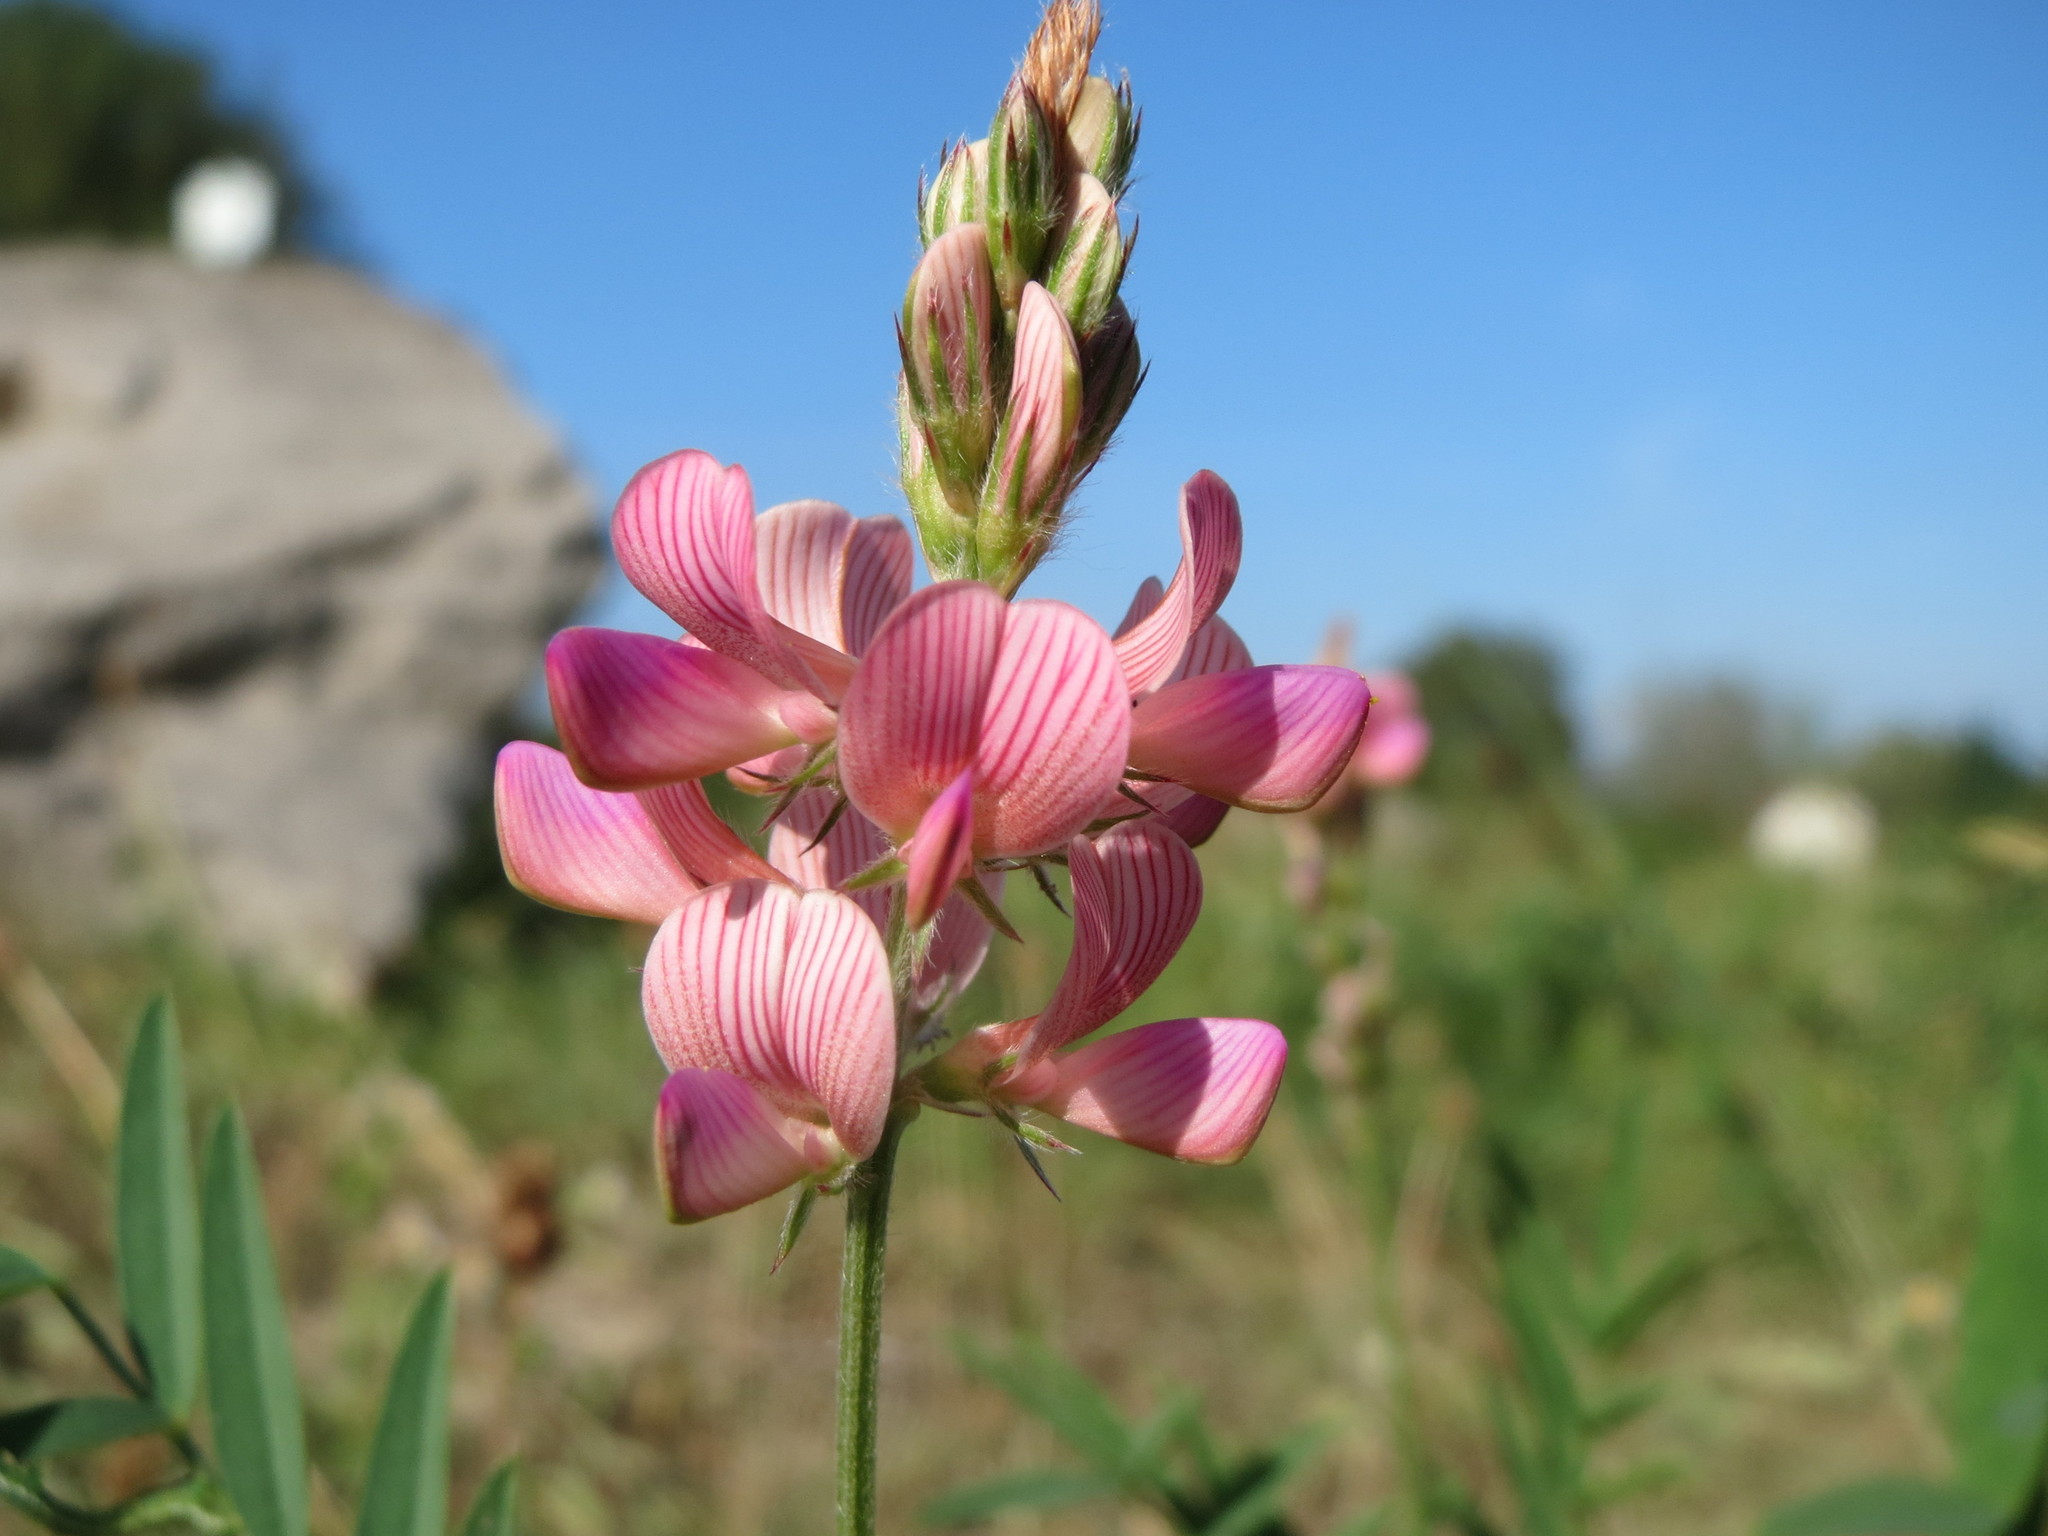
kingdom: Plantae
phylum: Tracheophyta
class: Magnoliopsida
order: Fabales
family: Fabaceae
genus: Onobrychis
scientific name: Onobrychis viciifolia
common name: Sainfoin
